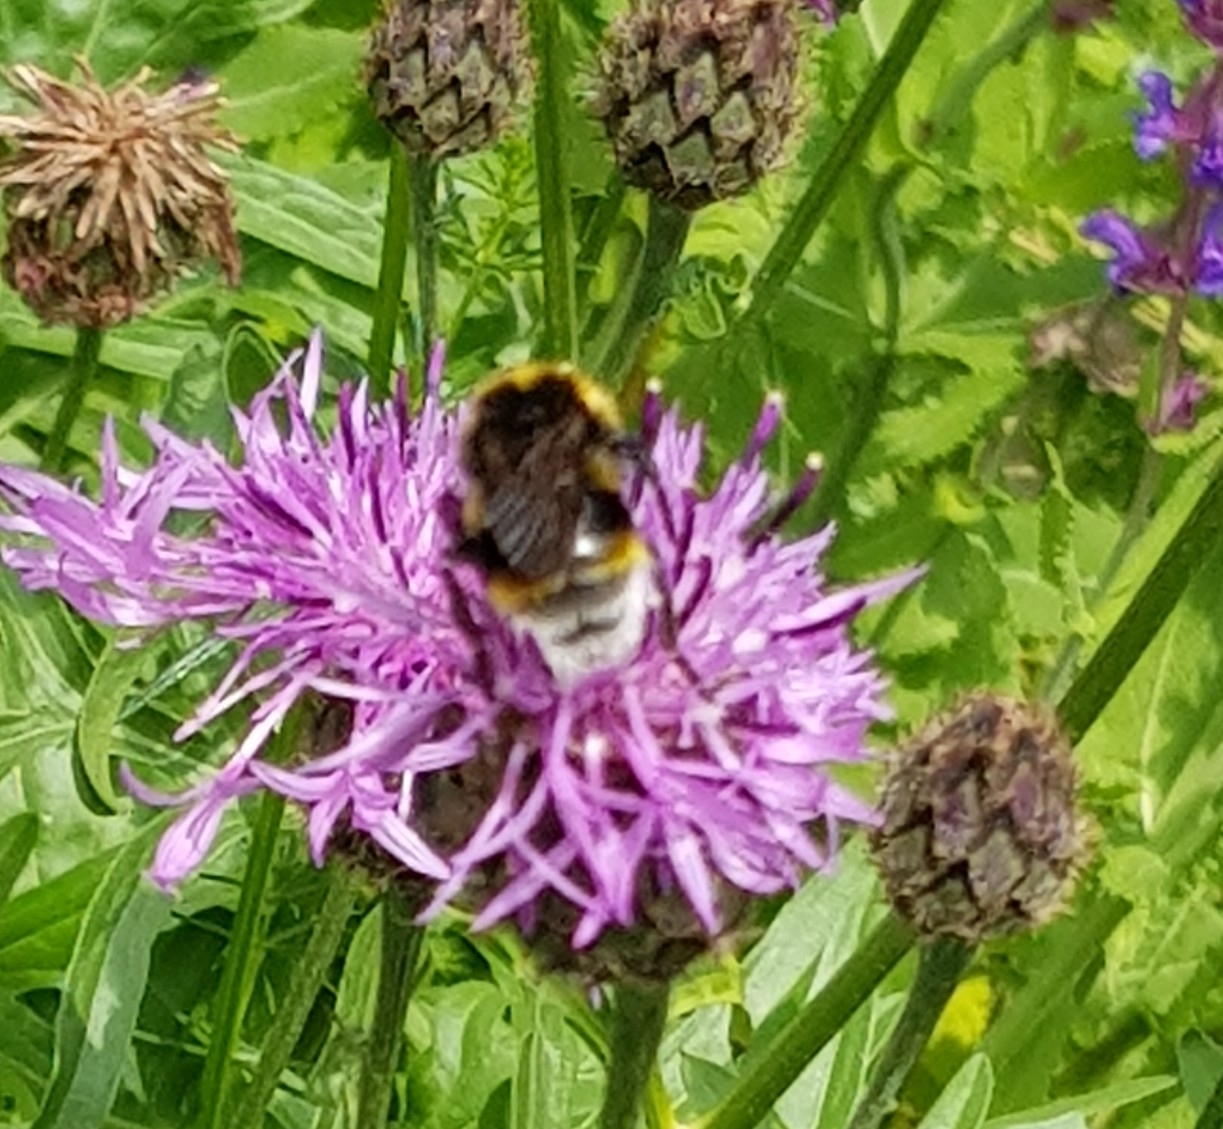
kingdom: Animalia
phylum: Arthropoda
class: Insecta
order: Hymenoptera
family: Apidae
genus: Bombus
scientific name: Bombus vestalis
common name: Vestal cuckoo bee
